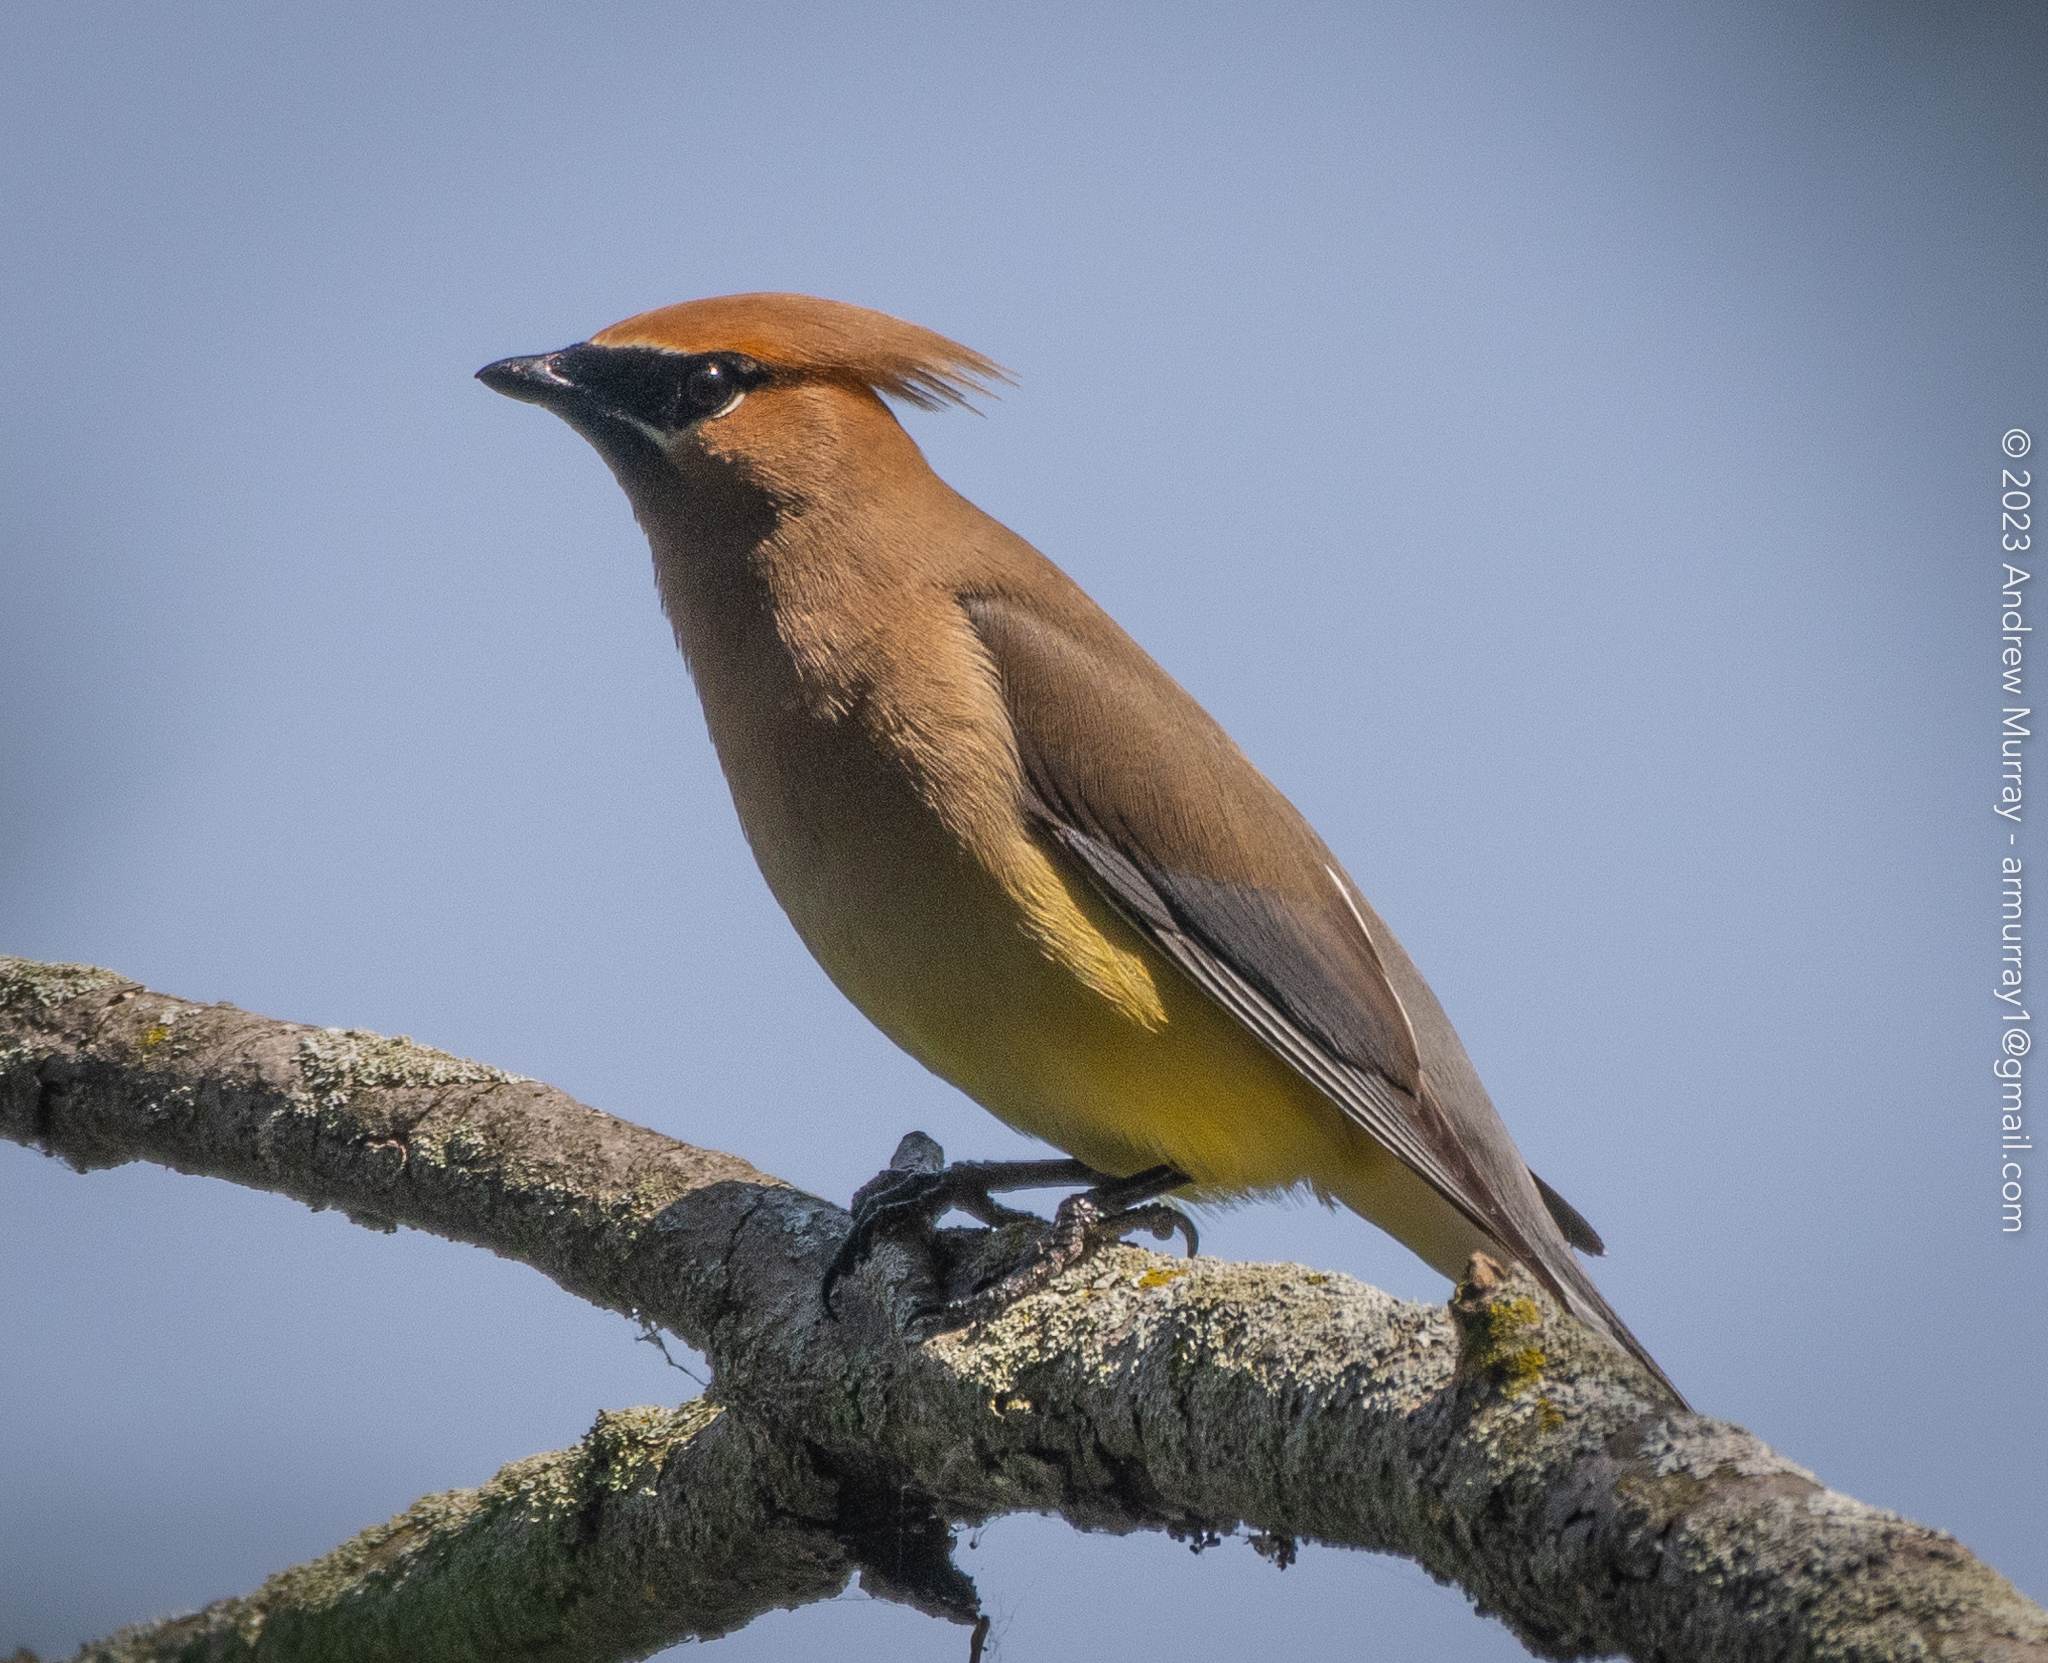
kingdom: Animalia
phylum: Chordata
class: Aves
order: Passeriformes
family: Bombycillidae
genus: Bombycilla
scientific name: Bombycilla cedrorum
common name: Cedar waxwing
